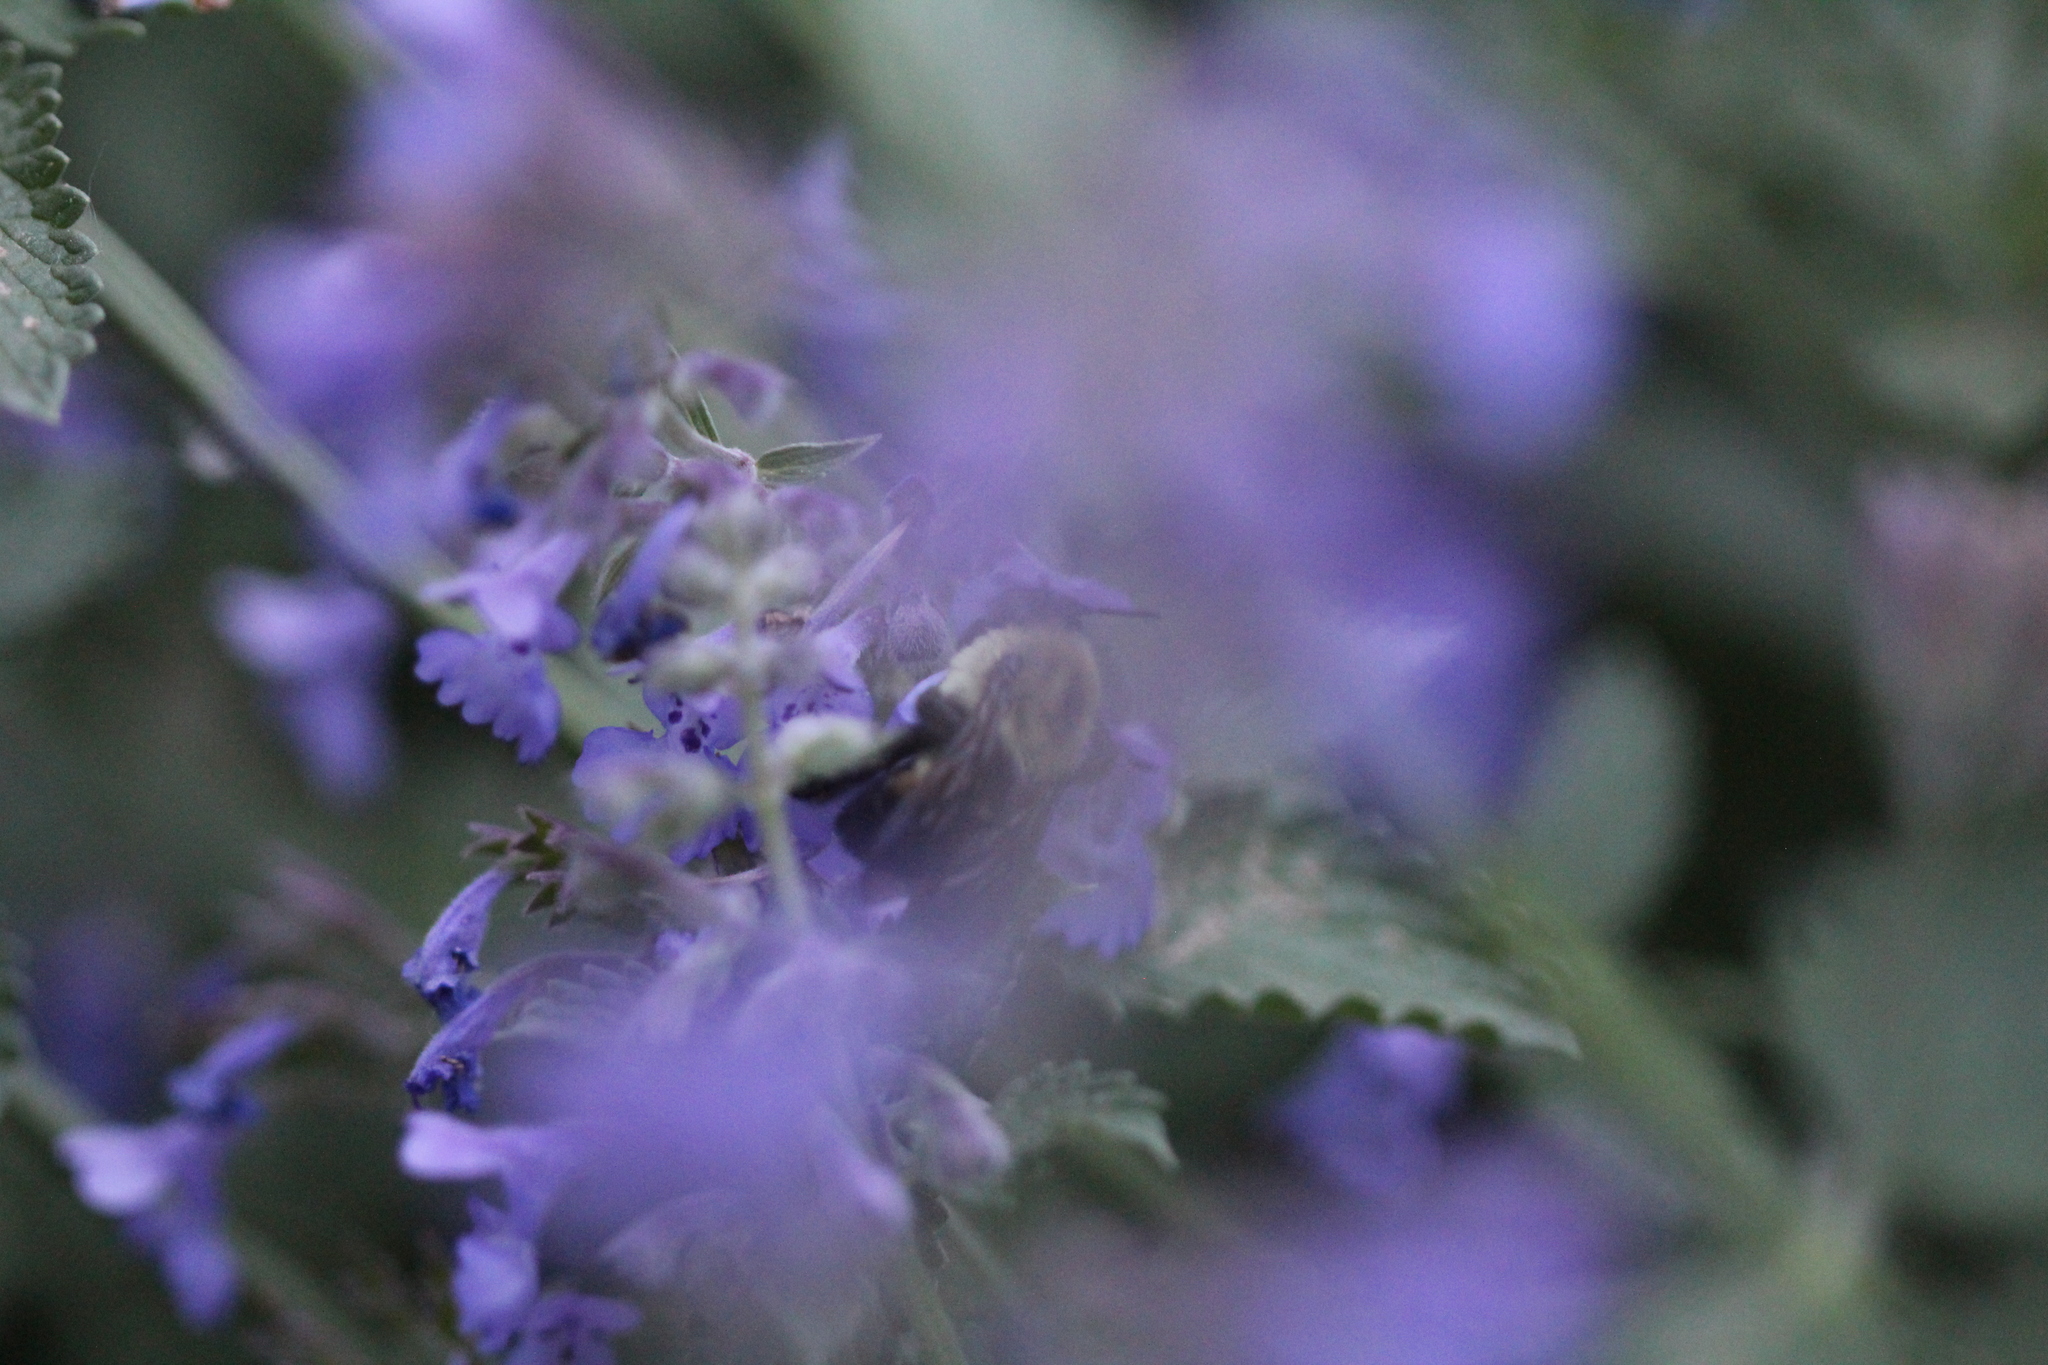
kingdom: Animalia
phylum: Arthropoda
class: Insecta
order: Hymenoptera
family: Apidae
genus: Bombus
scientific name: Bombus griseocollis
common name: Brown-belted bumble bee
